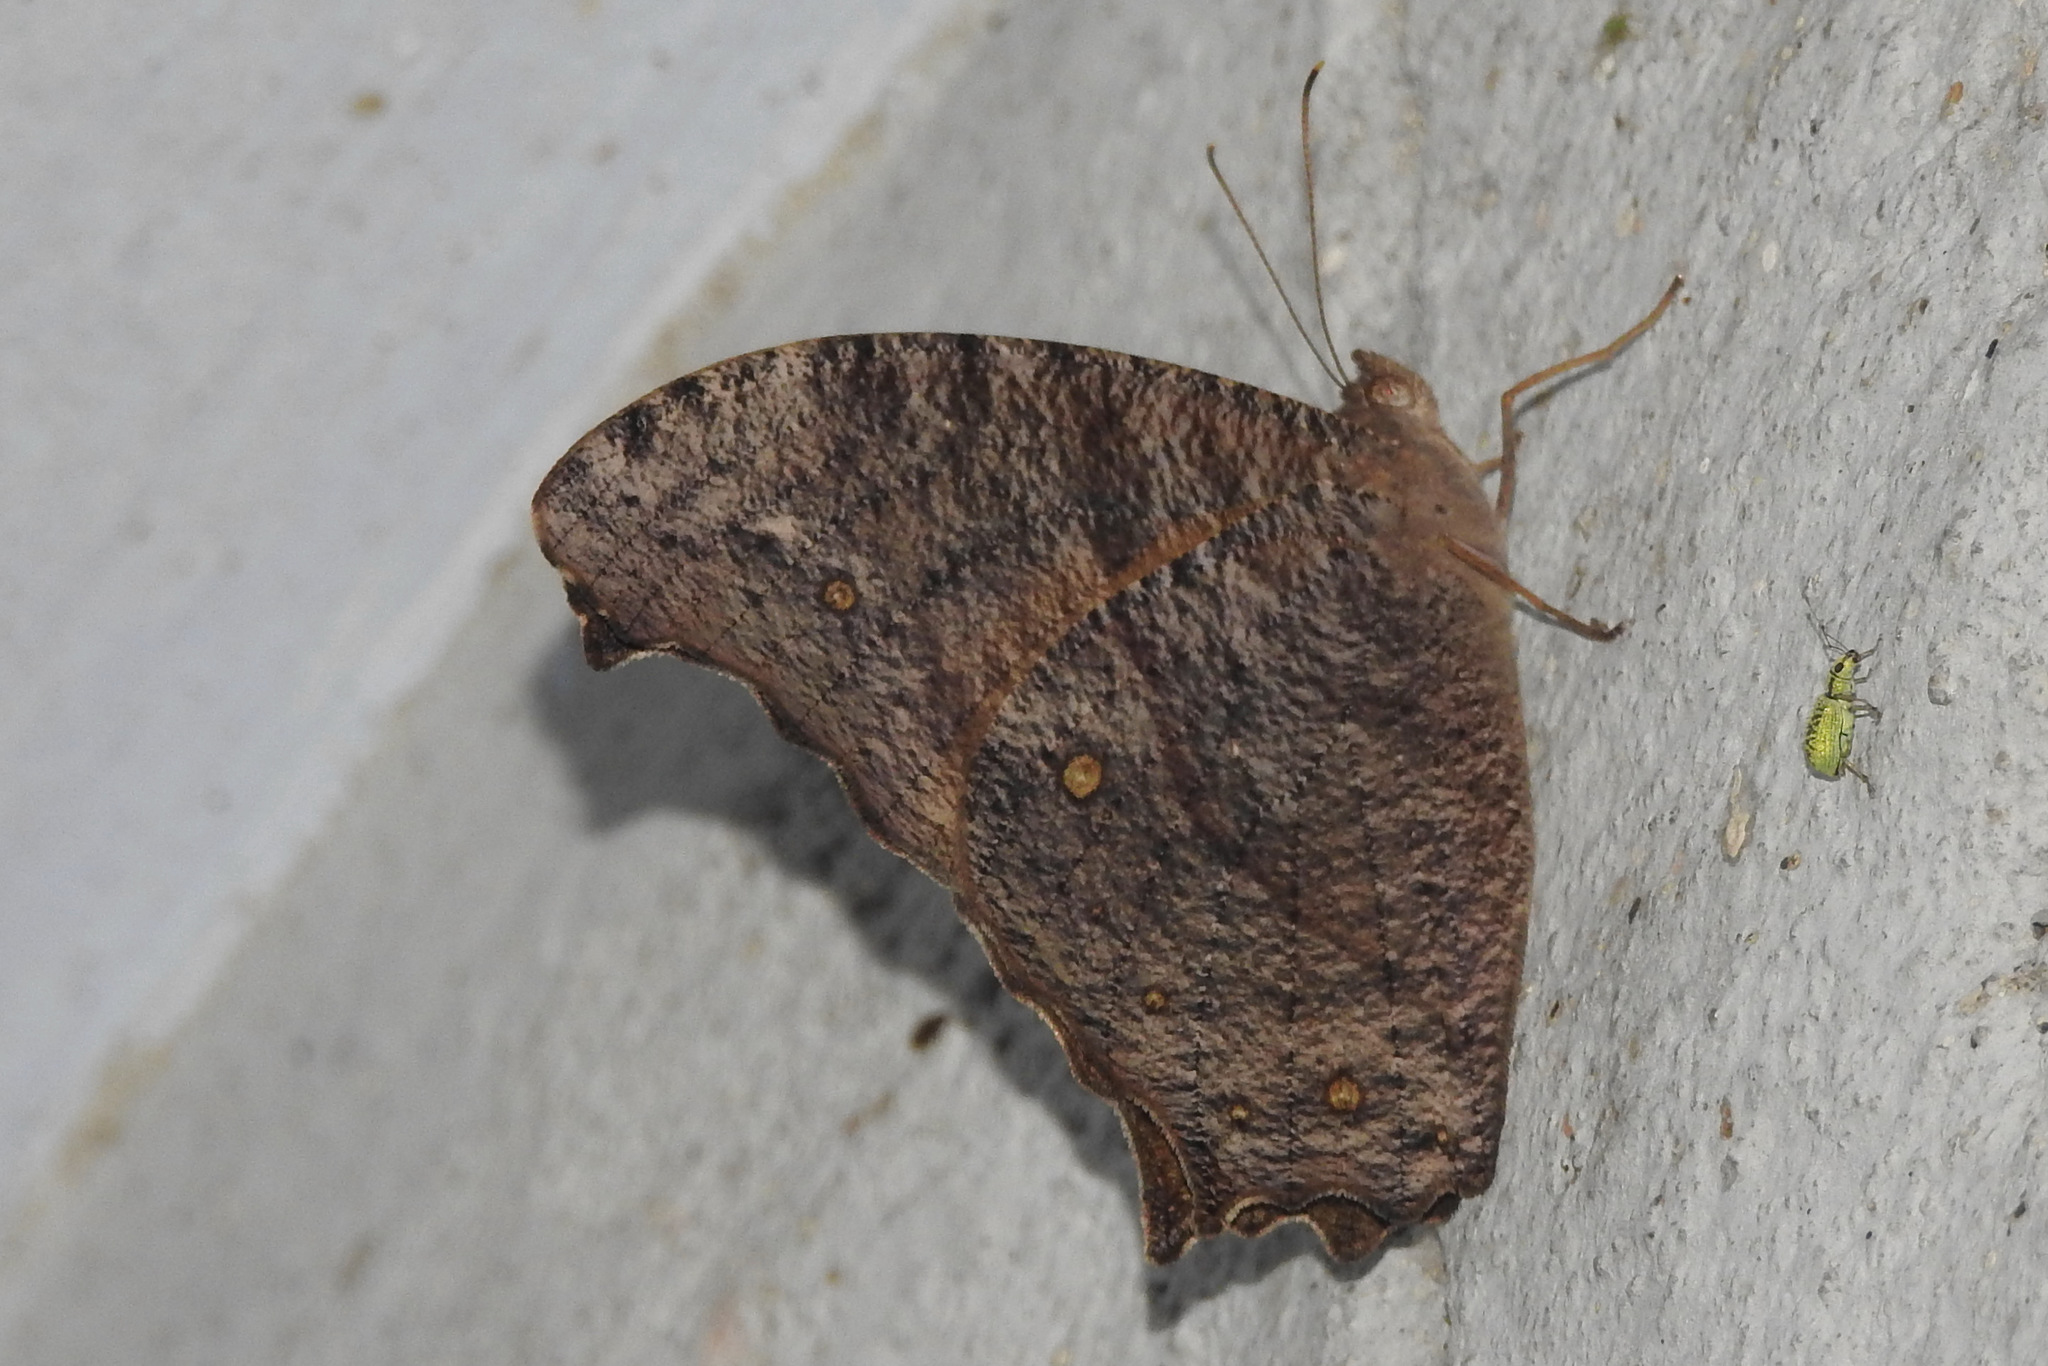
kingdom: Animalia
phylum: Arthropoda
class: Insecta
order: Lepidoptera
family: Nymphalidae
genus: Melanitis
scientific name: Melanitis leda
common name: Twilight brown
